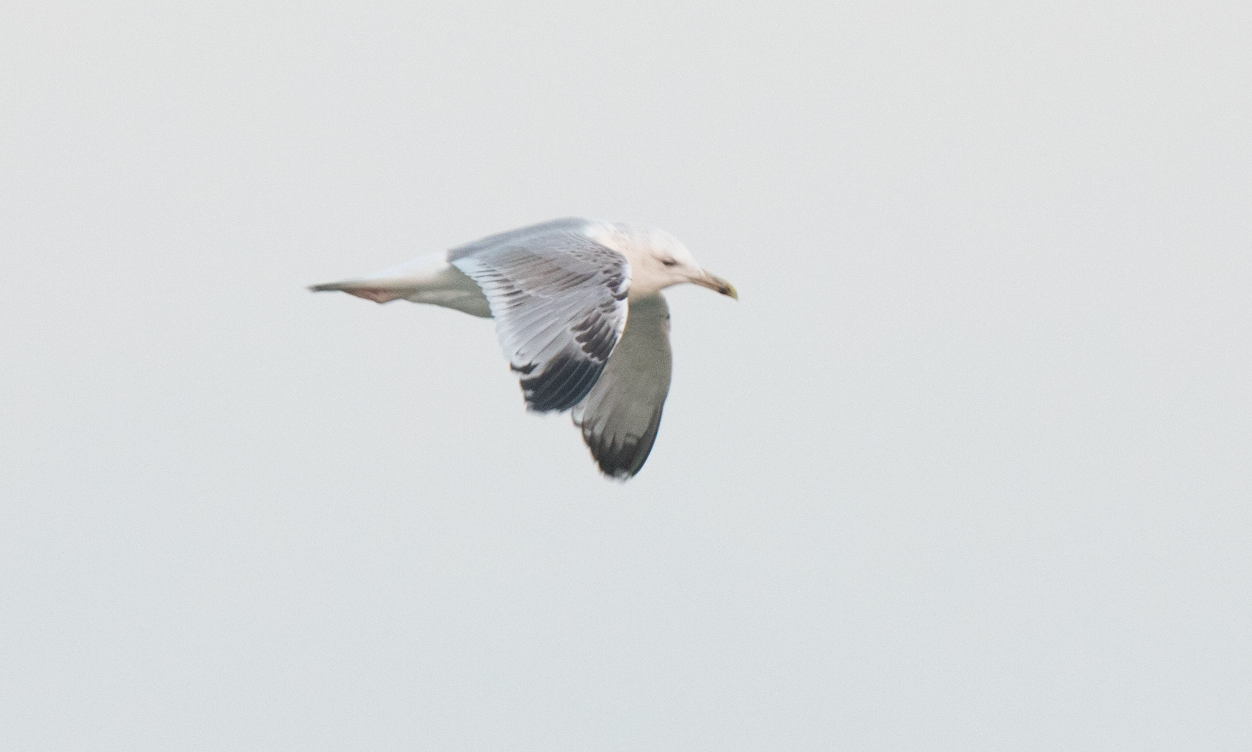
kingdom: Animalia
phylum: Chordata
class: Aves
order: Charadriiformes
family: Laridae
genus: Larus
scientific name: Larus cachinnans
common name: Caspian gull
